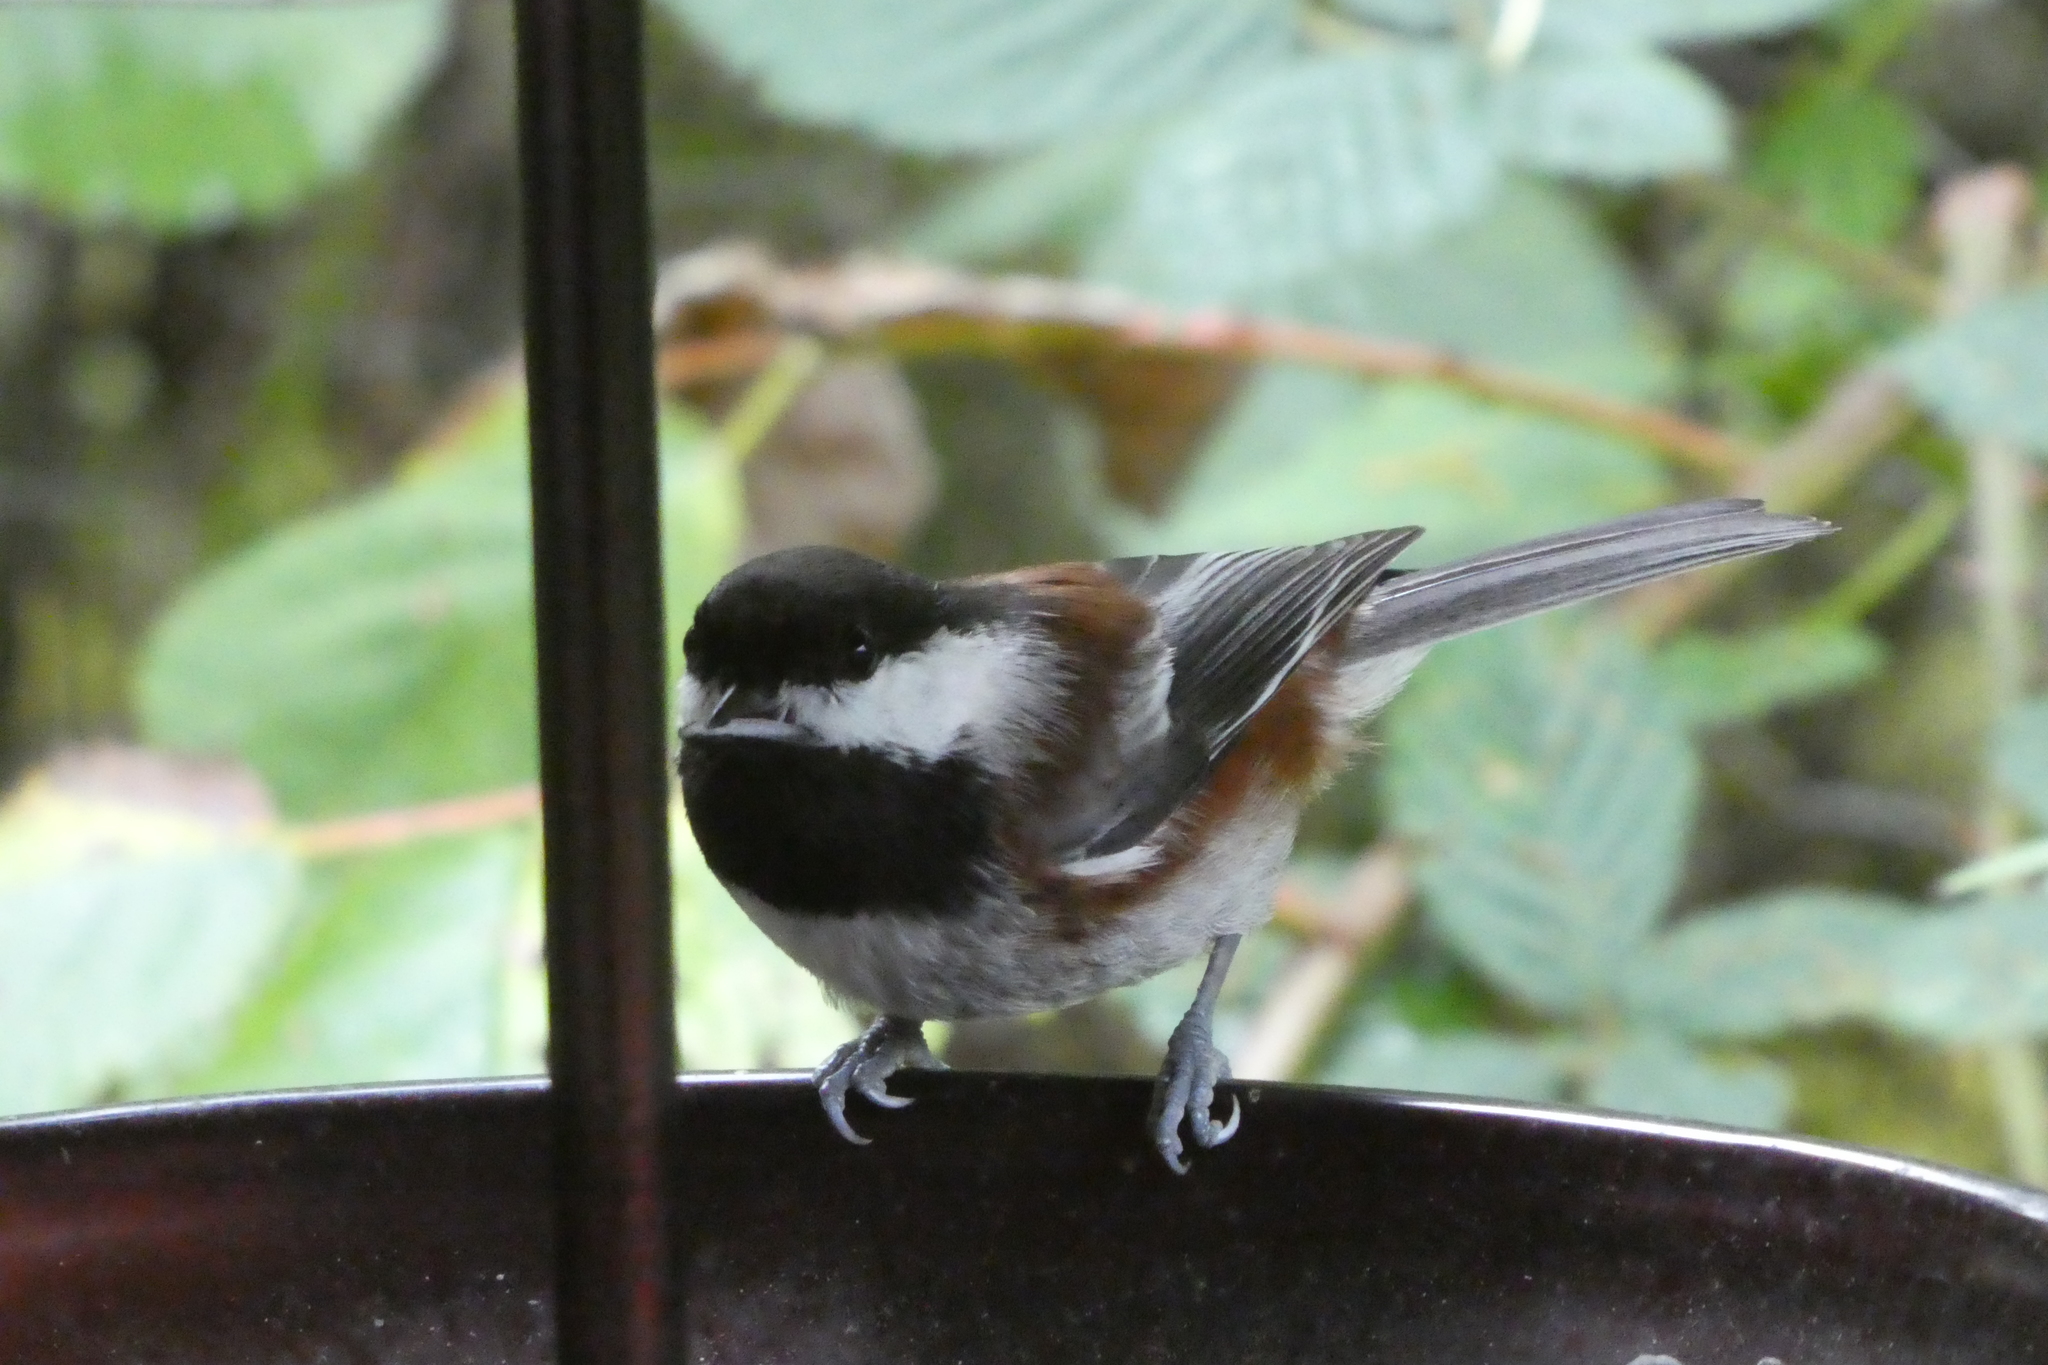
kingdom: Animalia
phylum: Chordata
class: Aves
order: Passeriformes
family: Paridae
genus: Poecile
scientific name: Poecile rufescens
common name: Chestnut-backed chickadee
